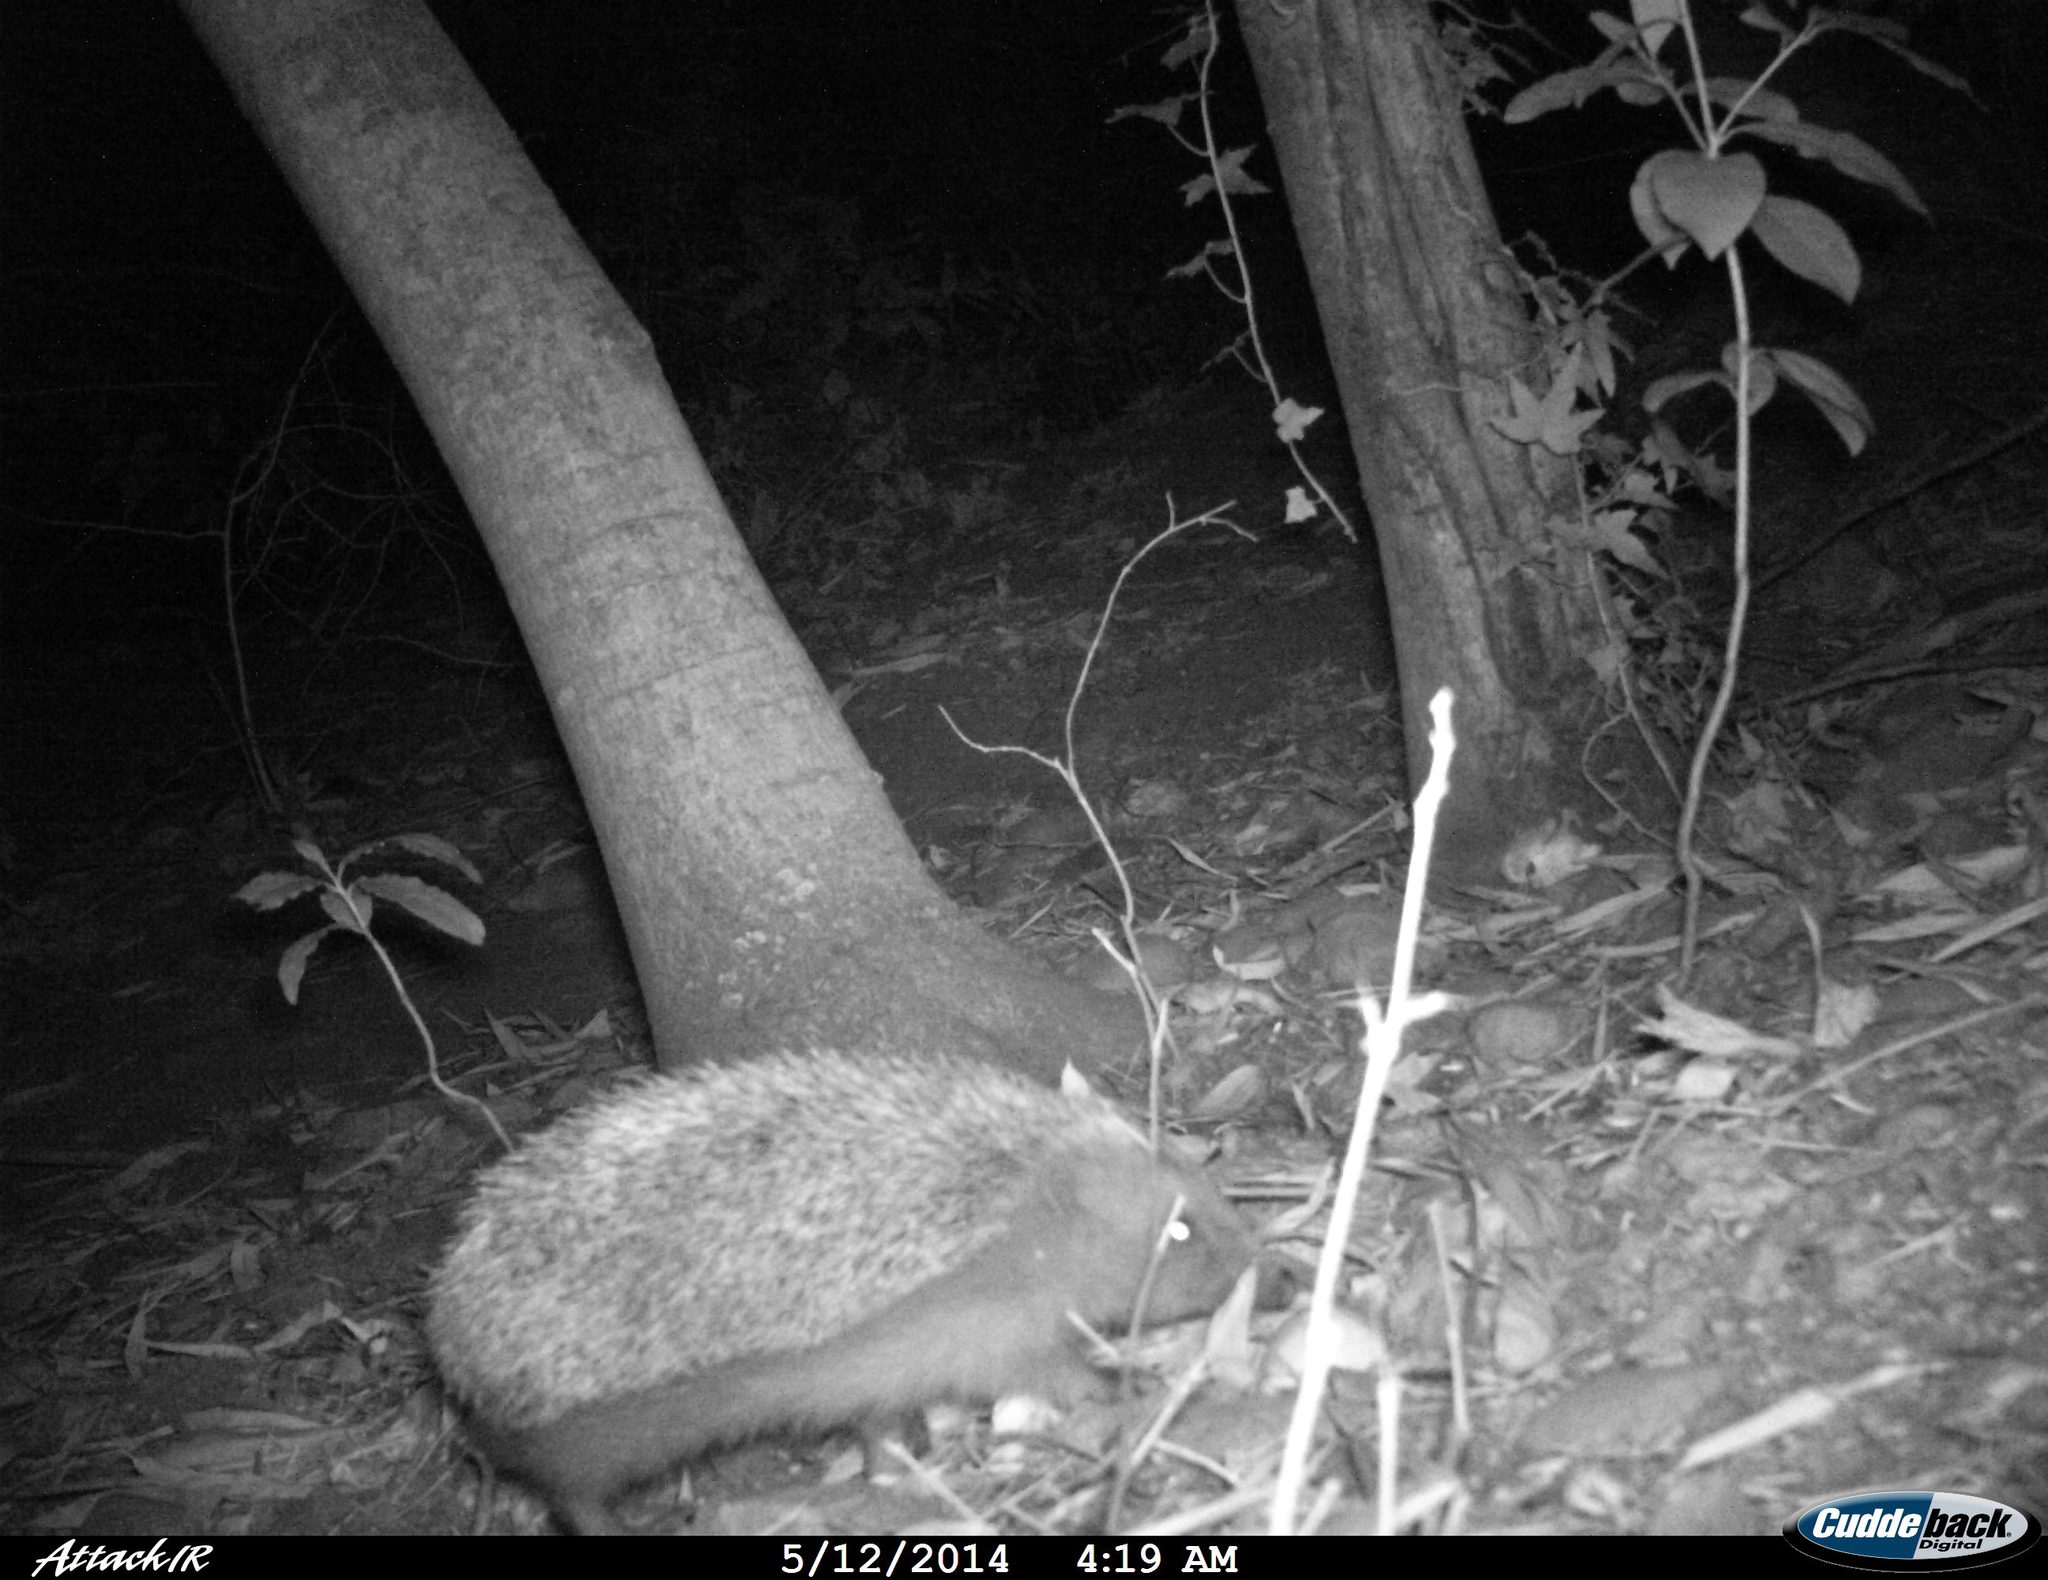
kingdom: Animalia
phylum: Chordata
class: Mammalia
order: Erinaceomorpha
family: Erinaceidae
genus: Erinaceus
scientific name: Erinaceus europaeus
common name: West european hedgehog
